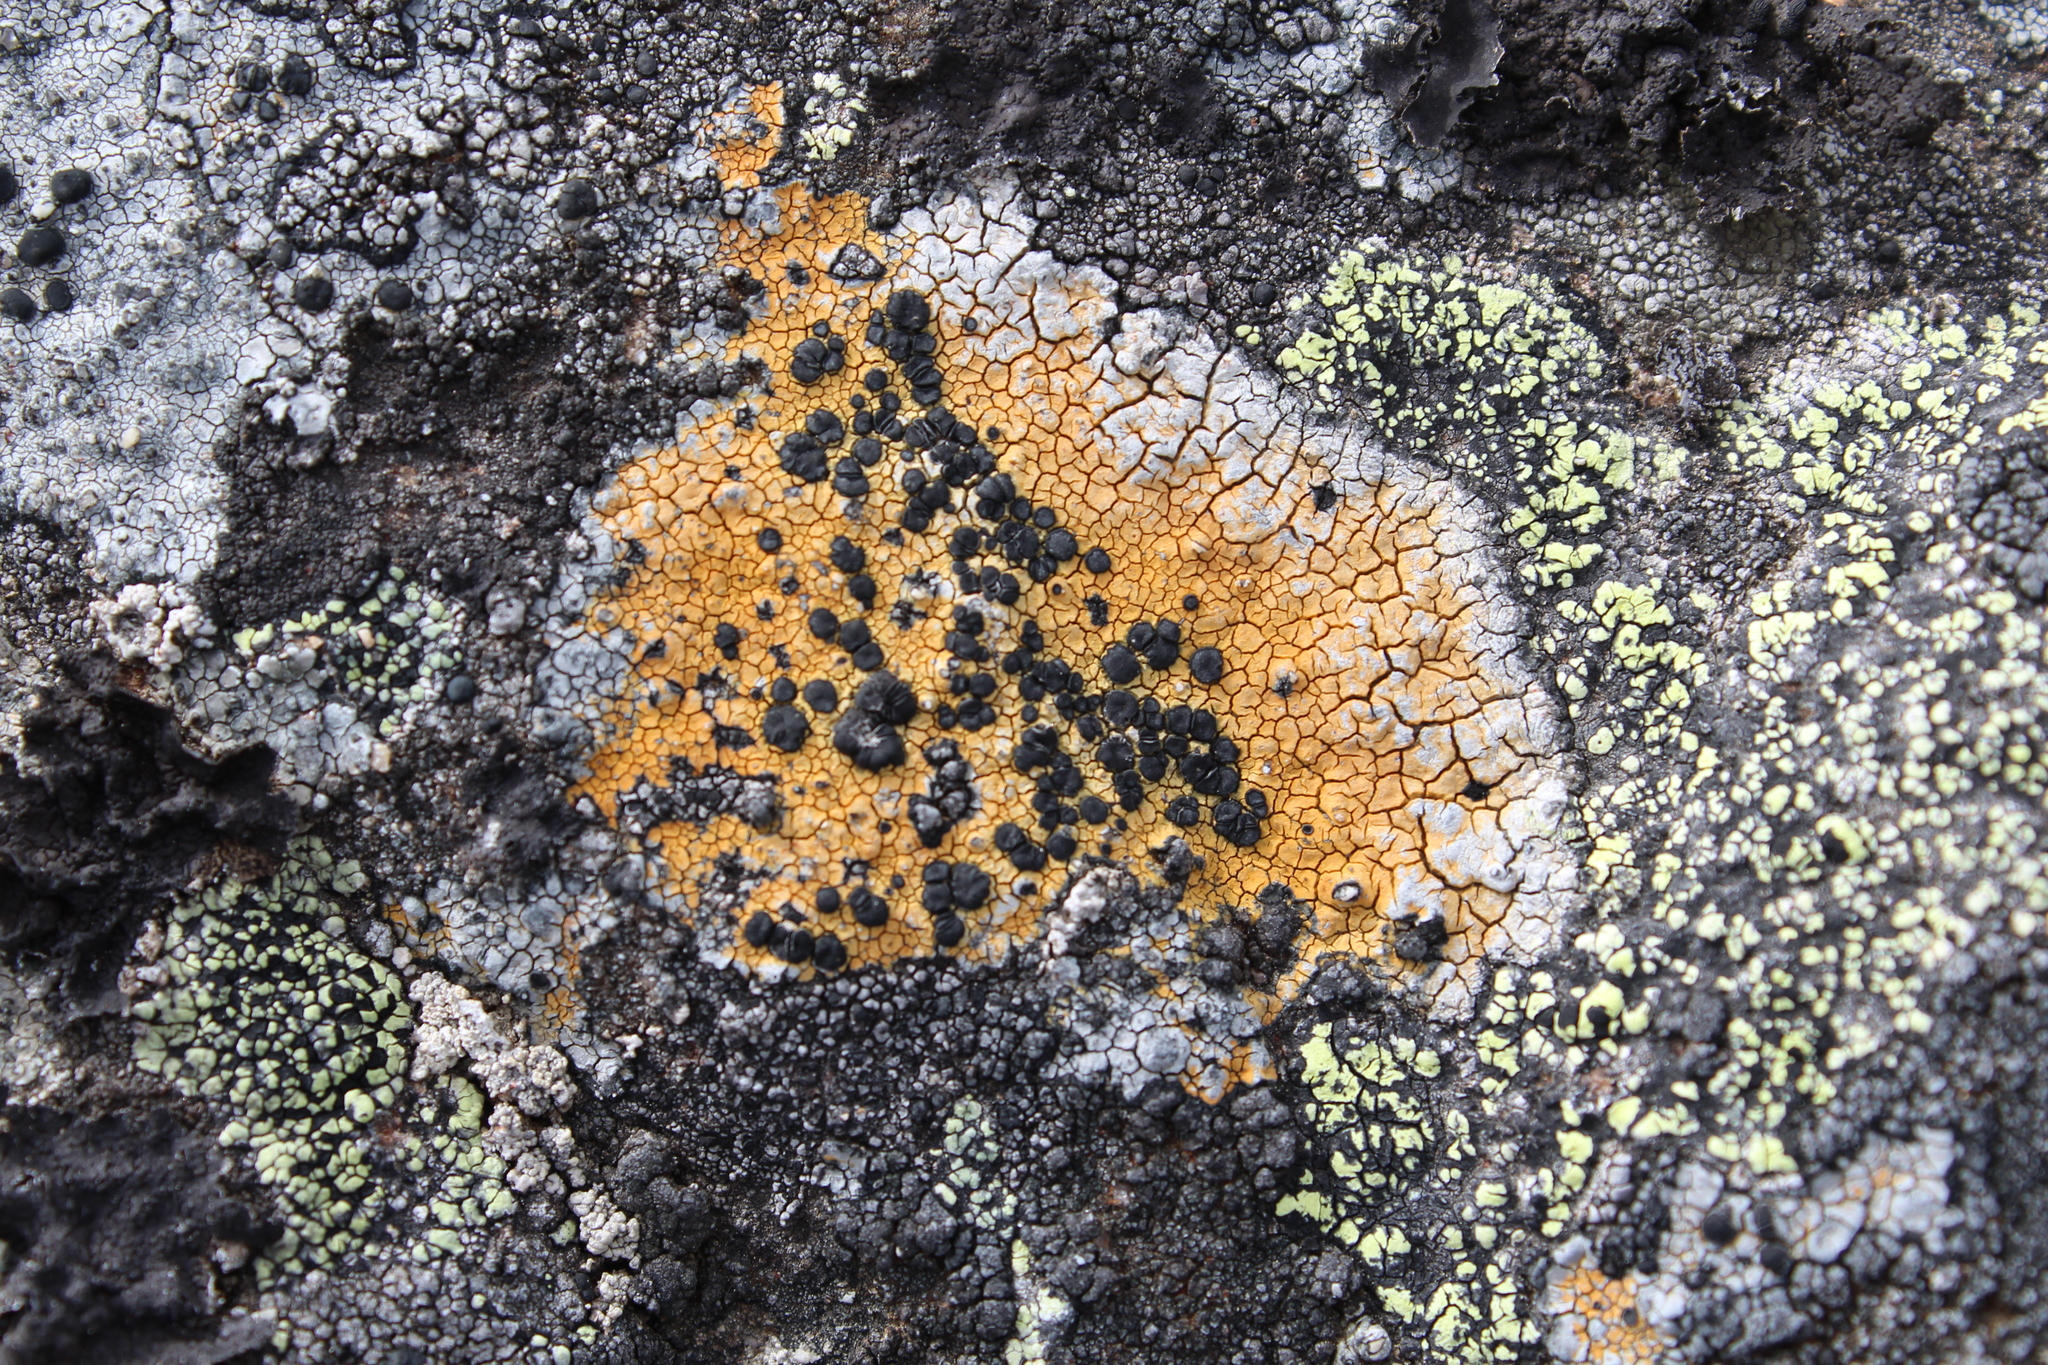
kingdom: Fungi
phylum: Ascomycota
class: Lecanoromycetes
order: Hymeneliales
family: Hymeneliaceae
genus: Tremolecia
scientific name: Tremolecia atrata
